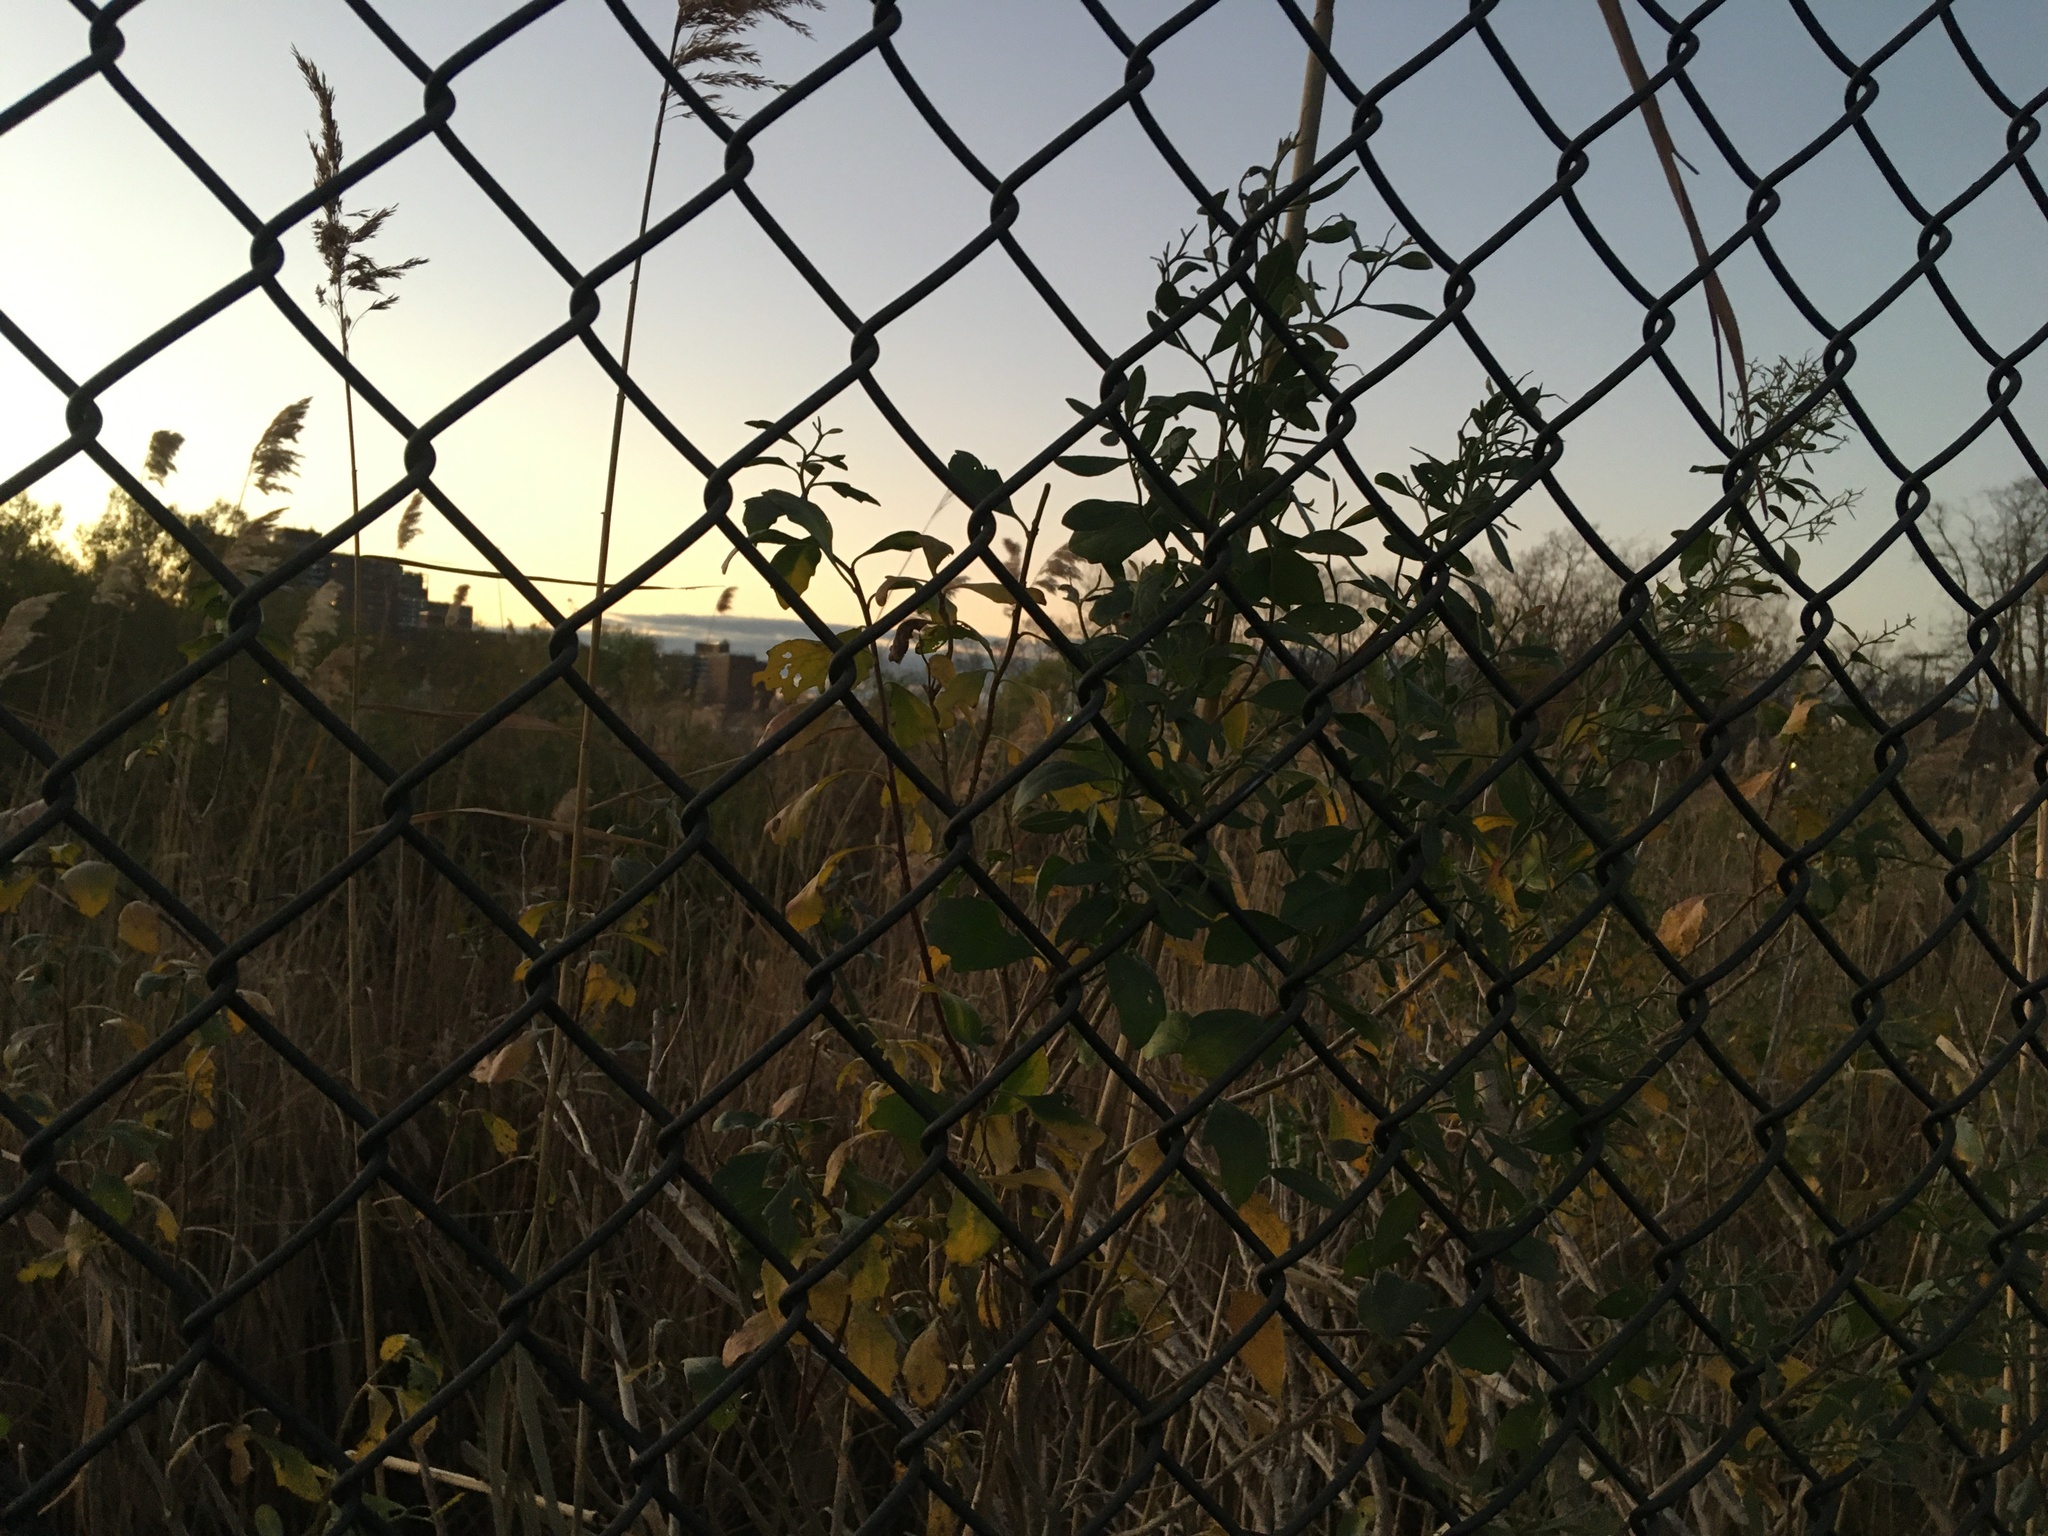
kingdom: Plantae
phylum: Tracheophyta
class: Magnoliopsida
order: Asterales
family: Asteraceae
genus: Baccharis
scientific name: Baccharis halimifolia
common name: Eastern baccharis
